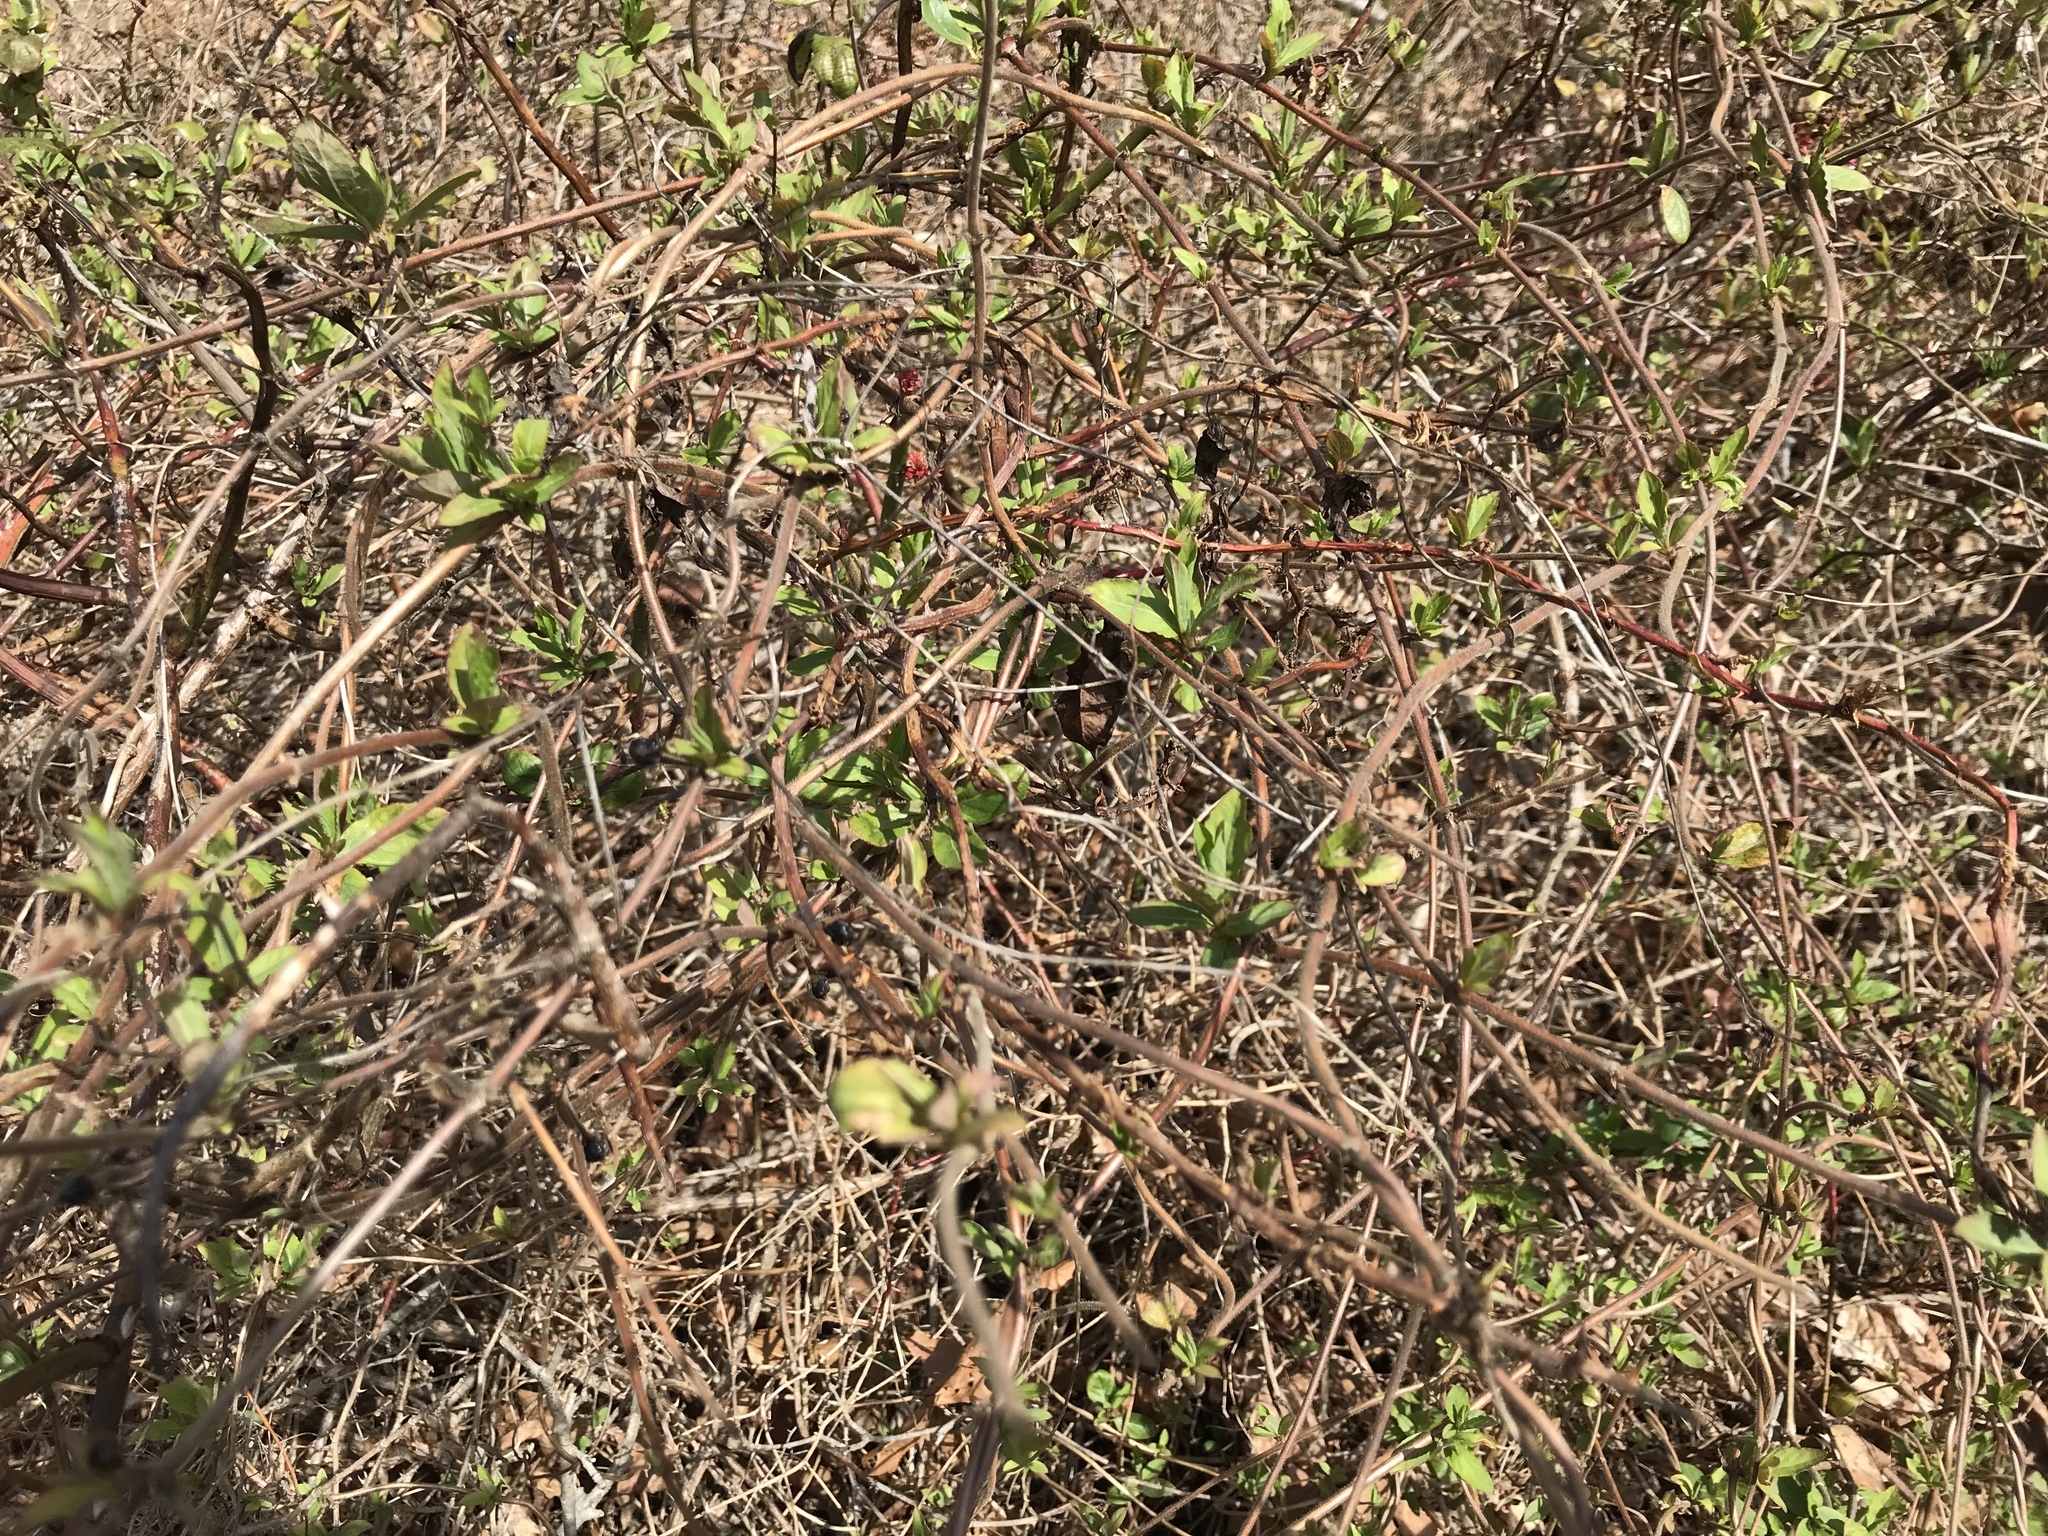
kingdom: Plantae
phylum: Tracheophyta
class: Magnoliopsida
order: Dipsacales
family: Caprifoliaceae
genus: Lonicera
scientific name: Lonicera japonica
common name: Japanese honeysuckle
